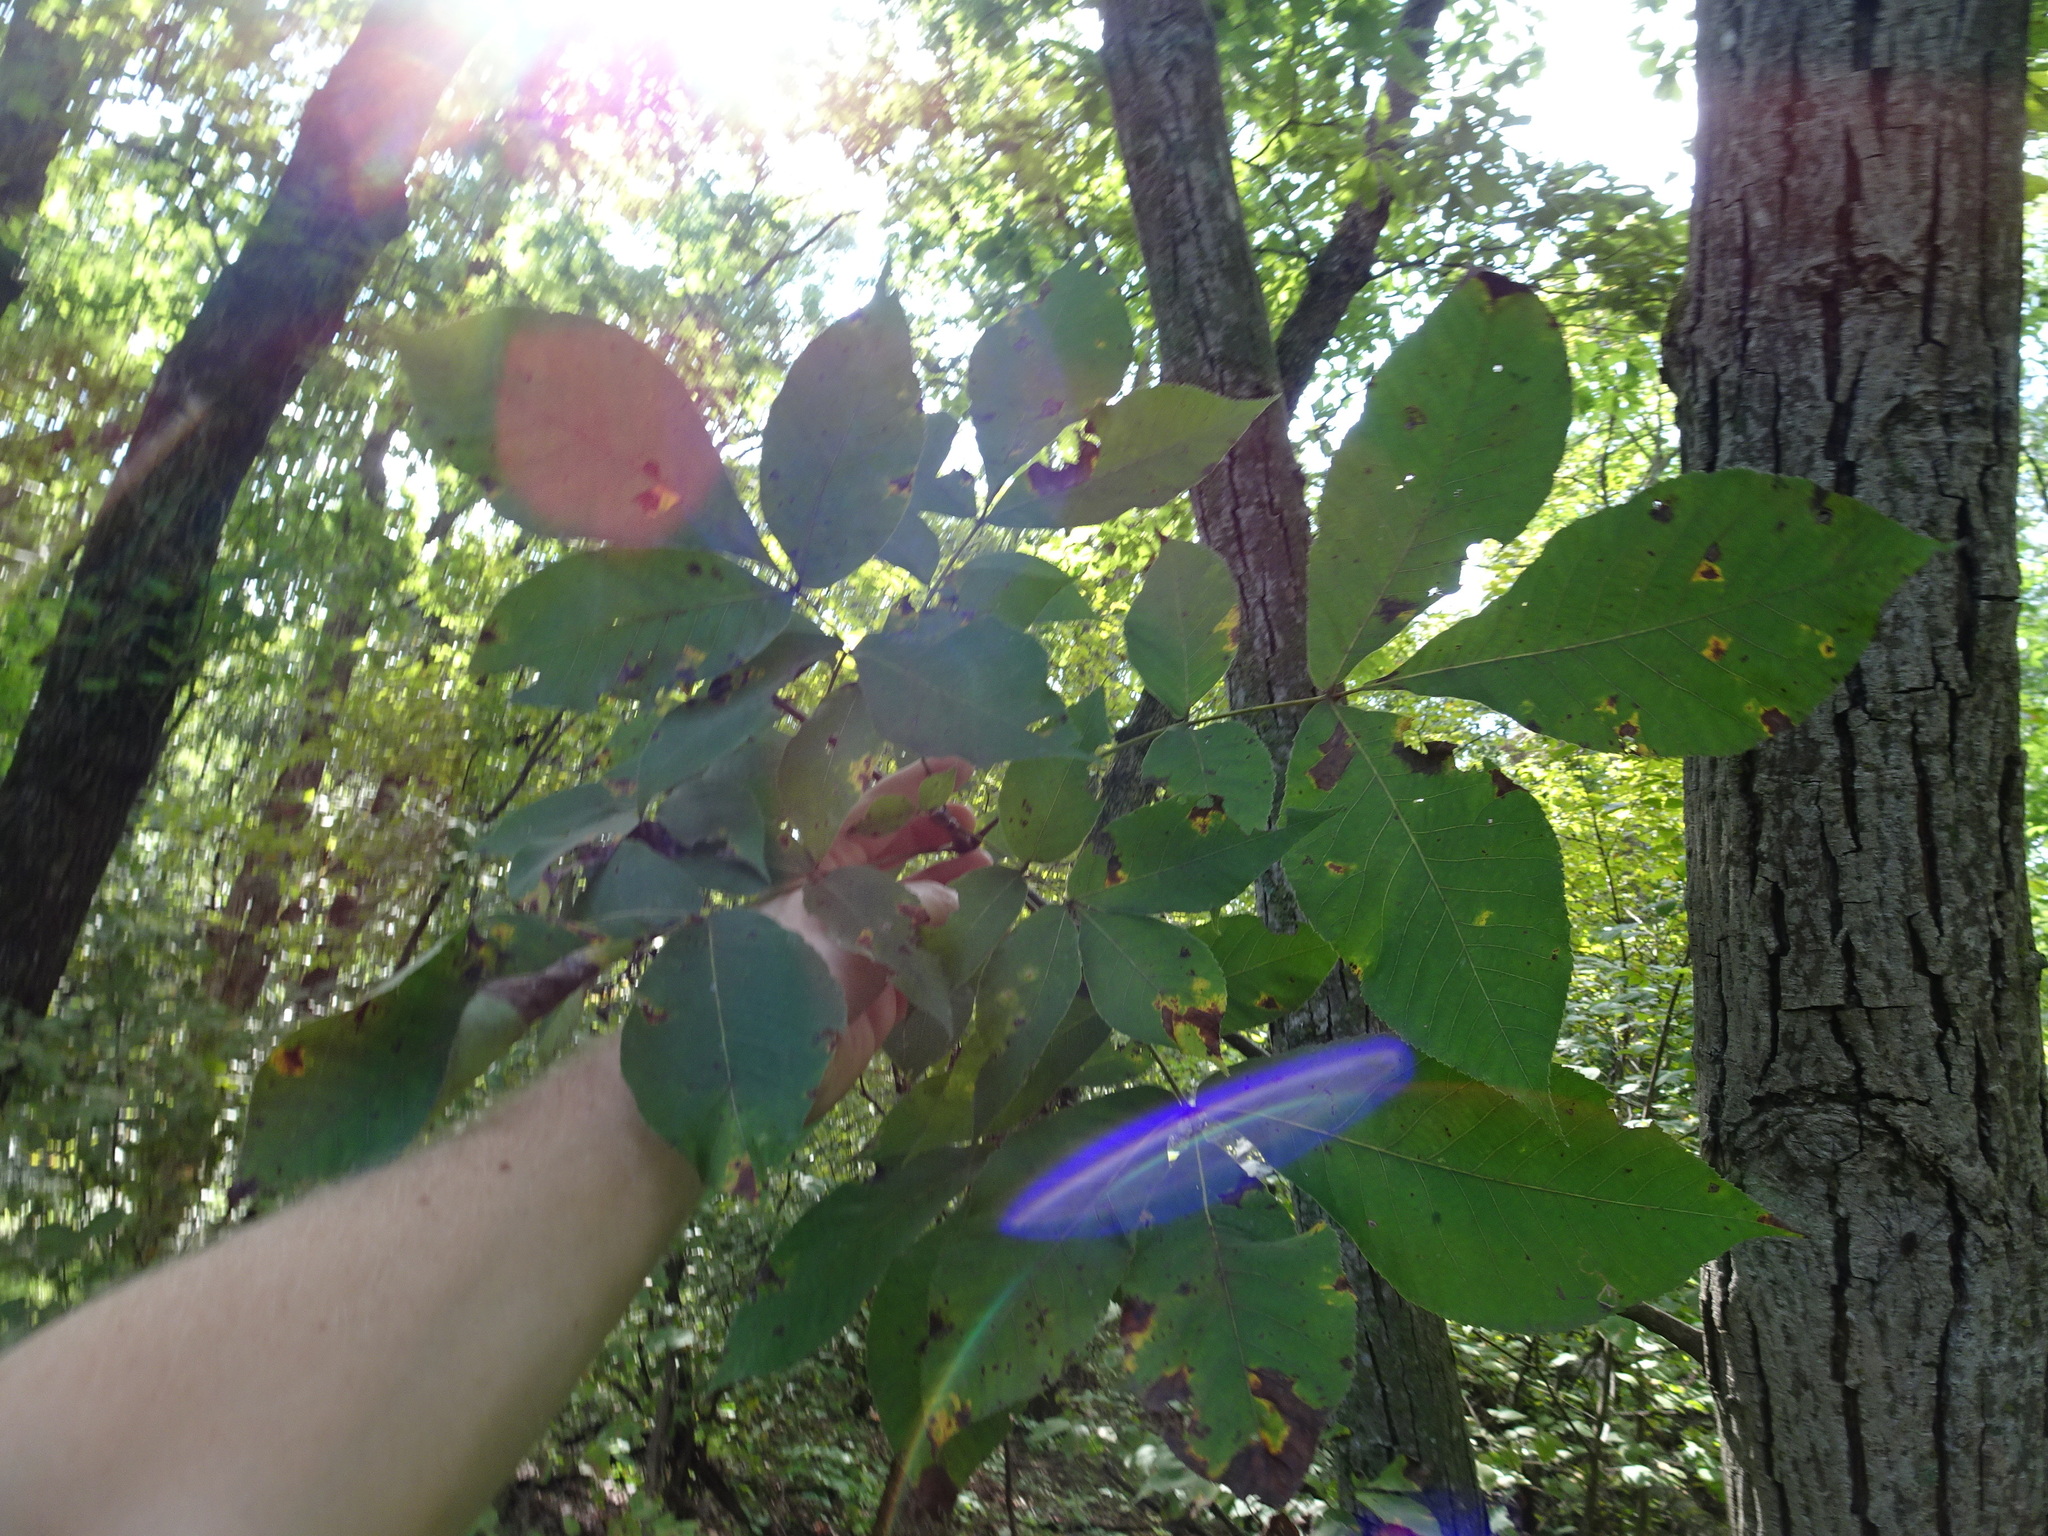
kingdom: Plantae
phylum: Tracheophyta
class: Magnoliopsida
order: Fagales
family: Juglandaceae
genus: Carya
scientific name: Carya ovata
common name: Shagbark hickory
